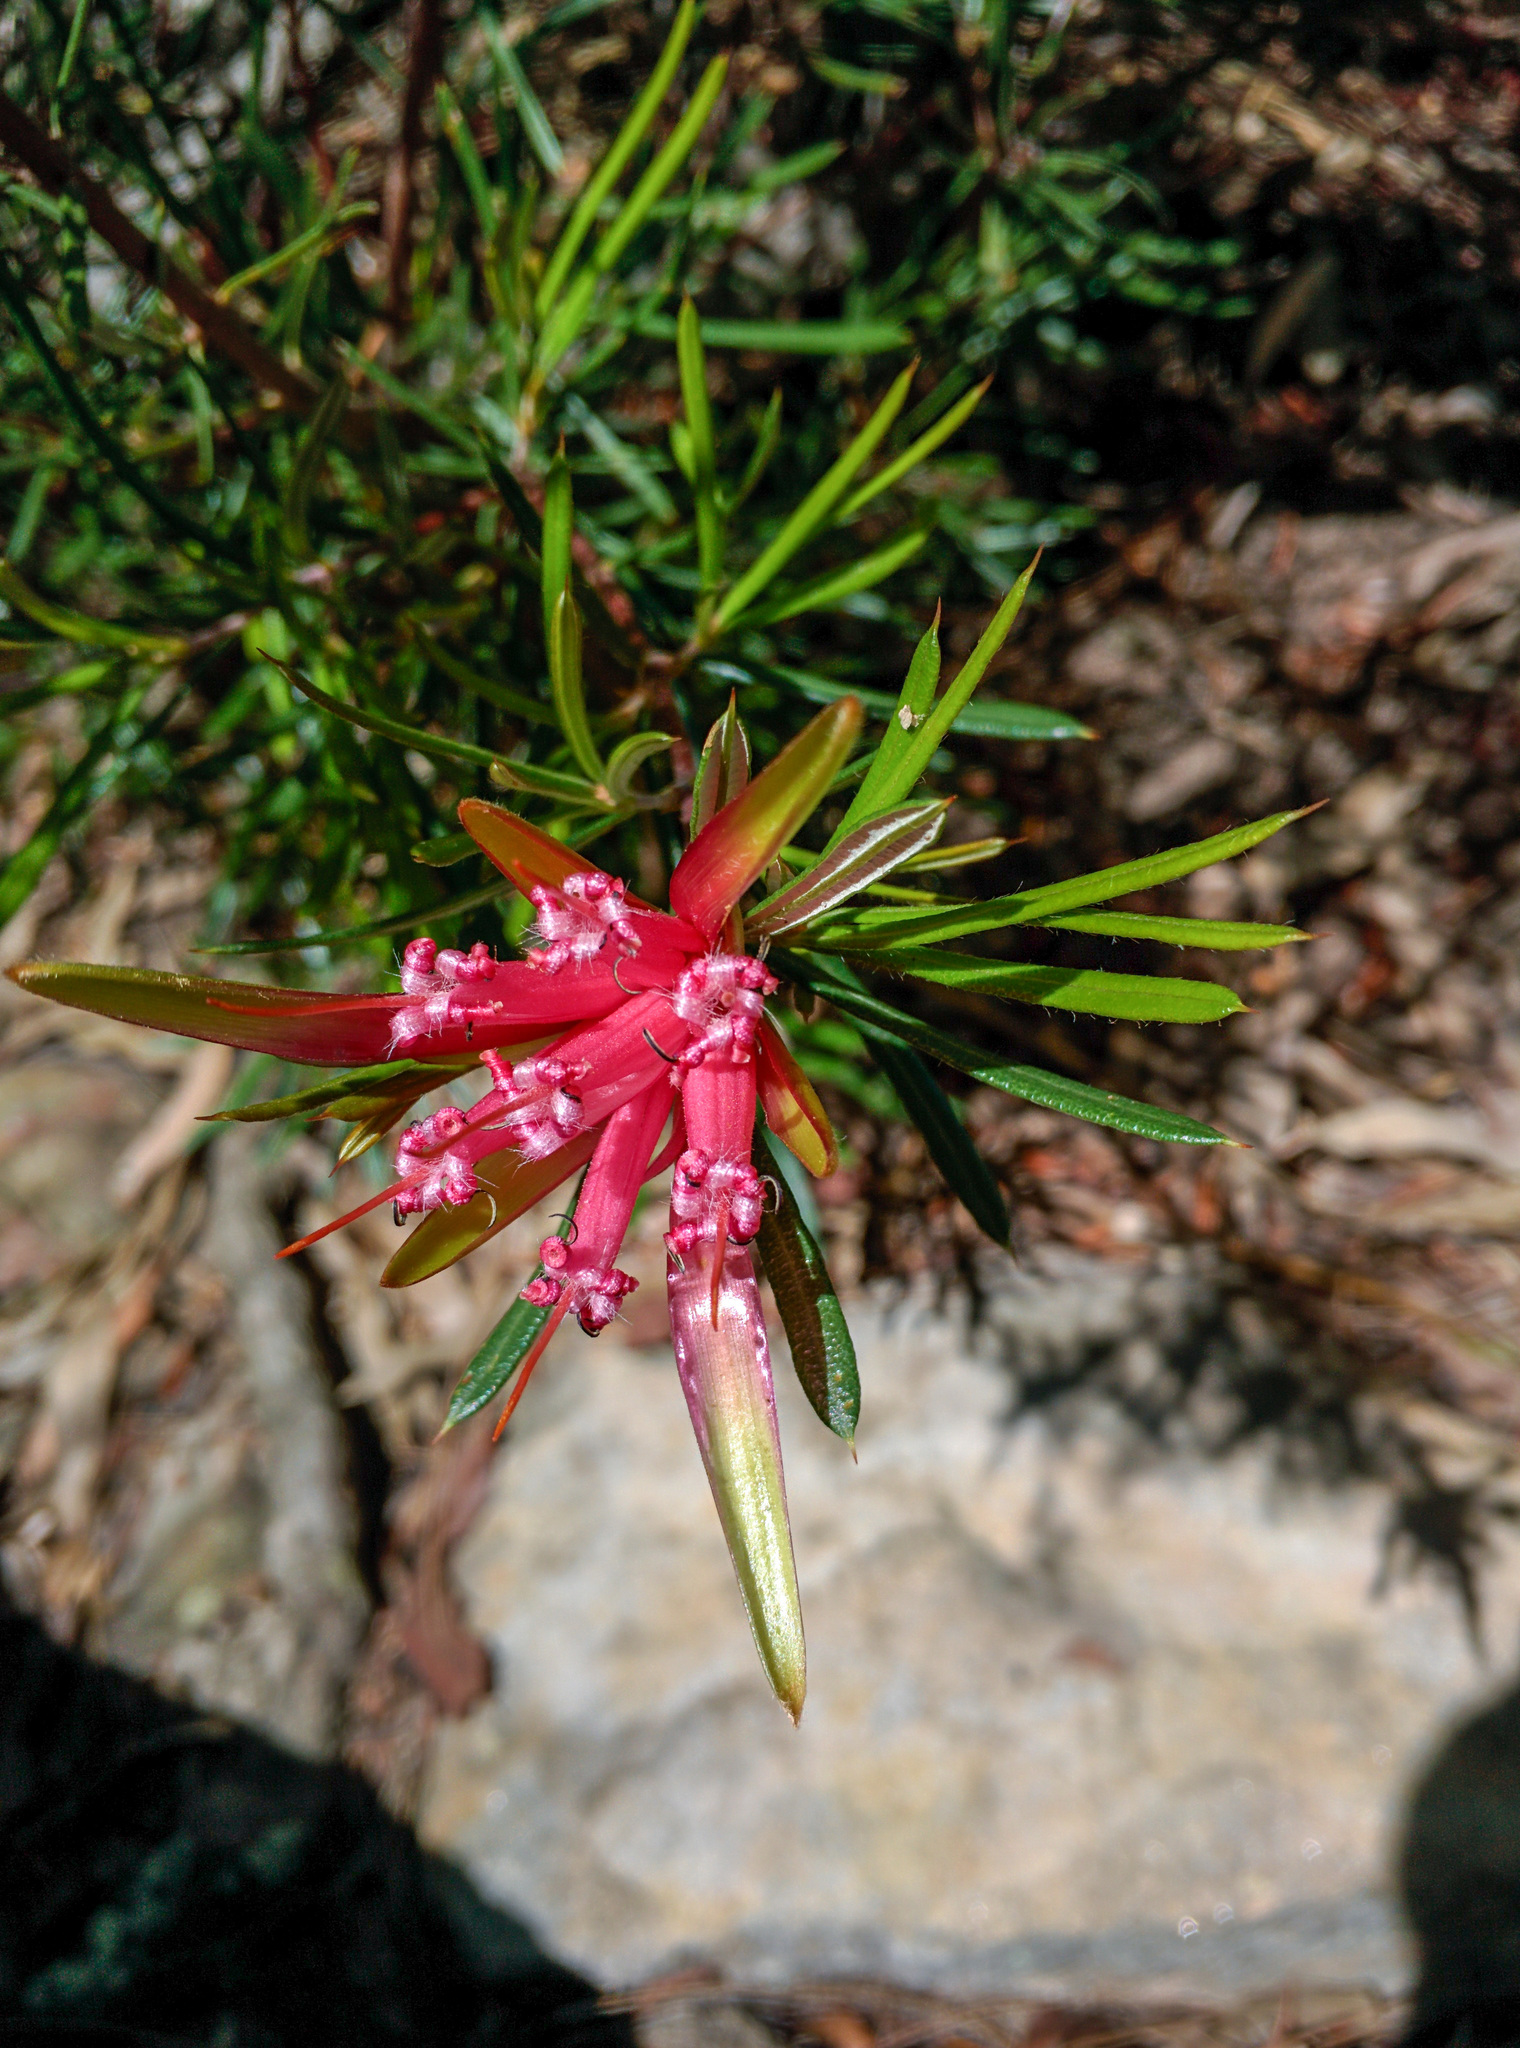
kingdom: Plantae
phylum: Tracheophyta
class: Magnoliopsida
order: Proteales
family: Proteaceae
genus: Lambertia
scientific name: Lambertia formosa
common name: Mountain-devil
